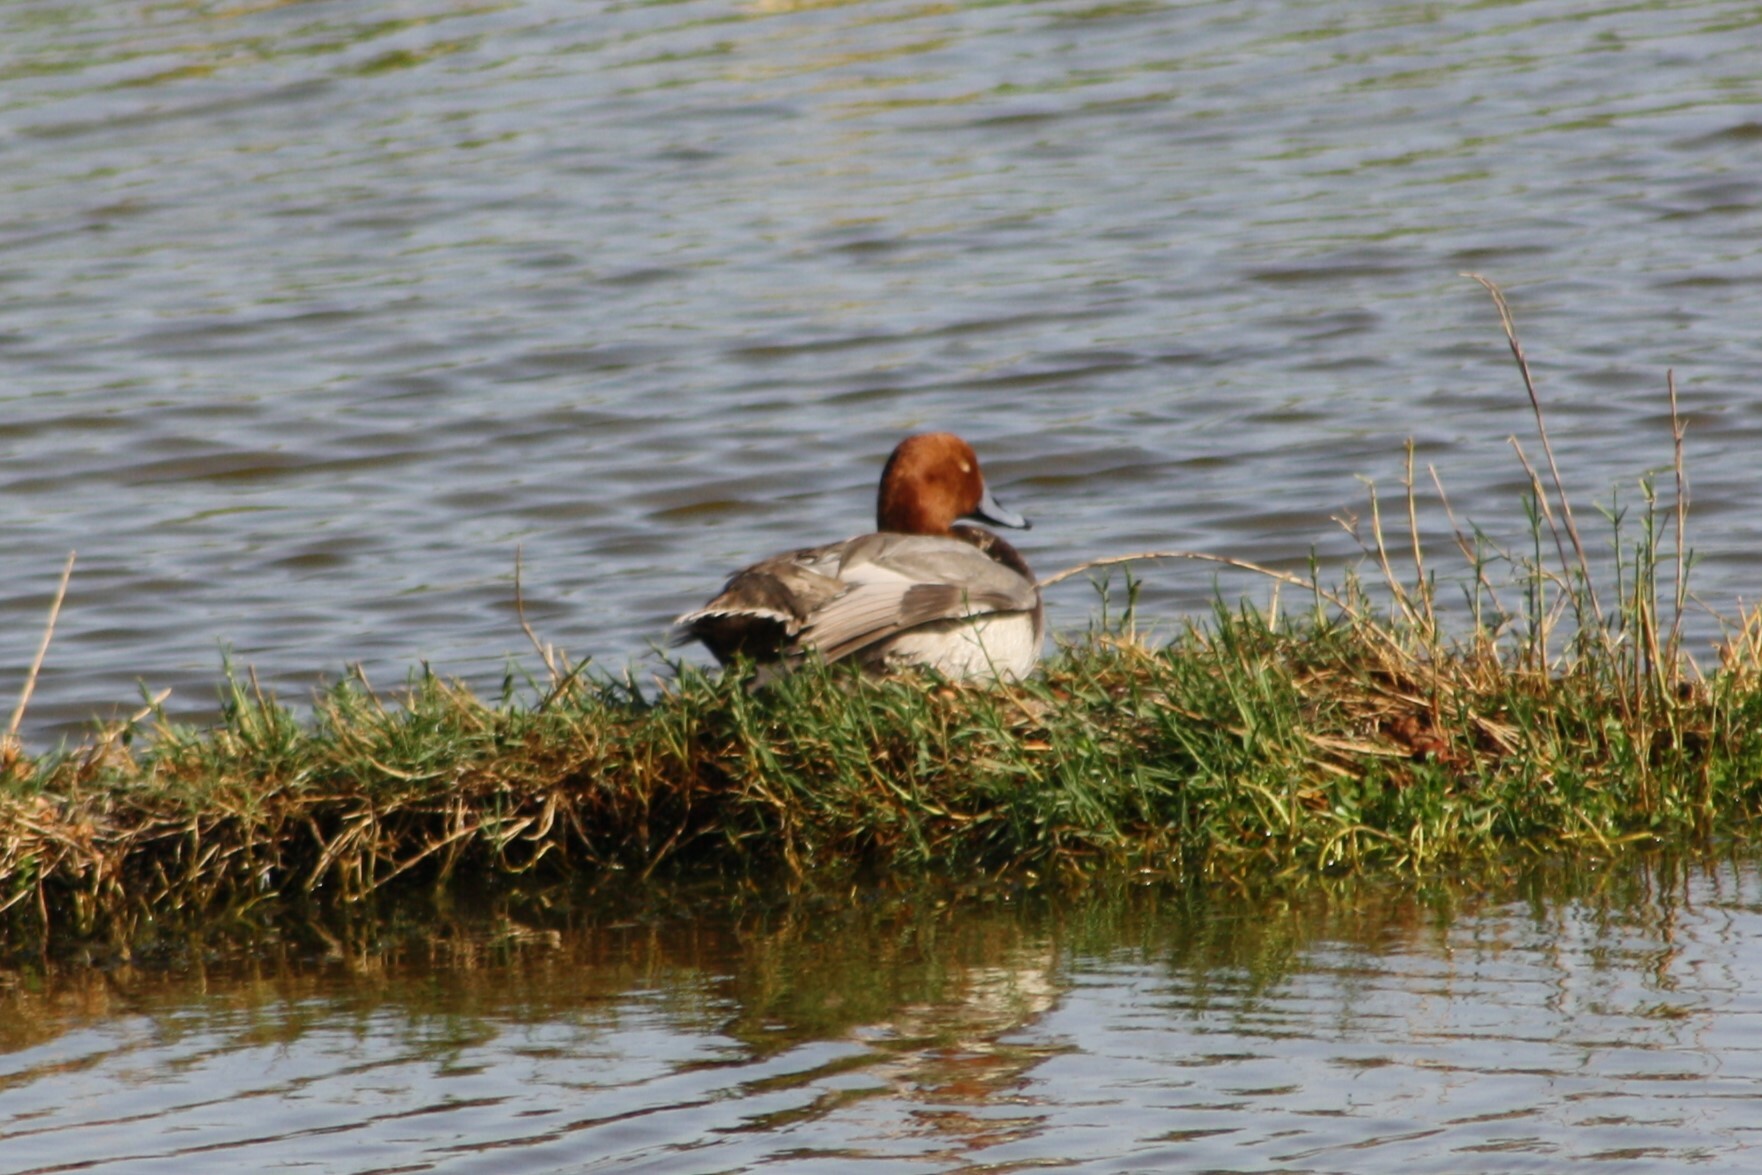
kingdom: Animalia
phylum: Chordata
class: Aves
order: Anseriformes
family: Anatidae
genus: Aythya
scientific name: Aythya americana
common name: Redhead
